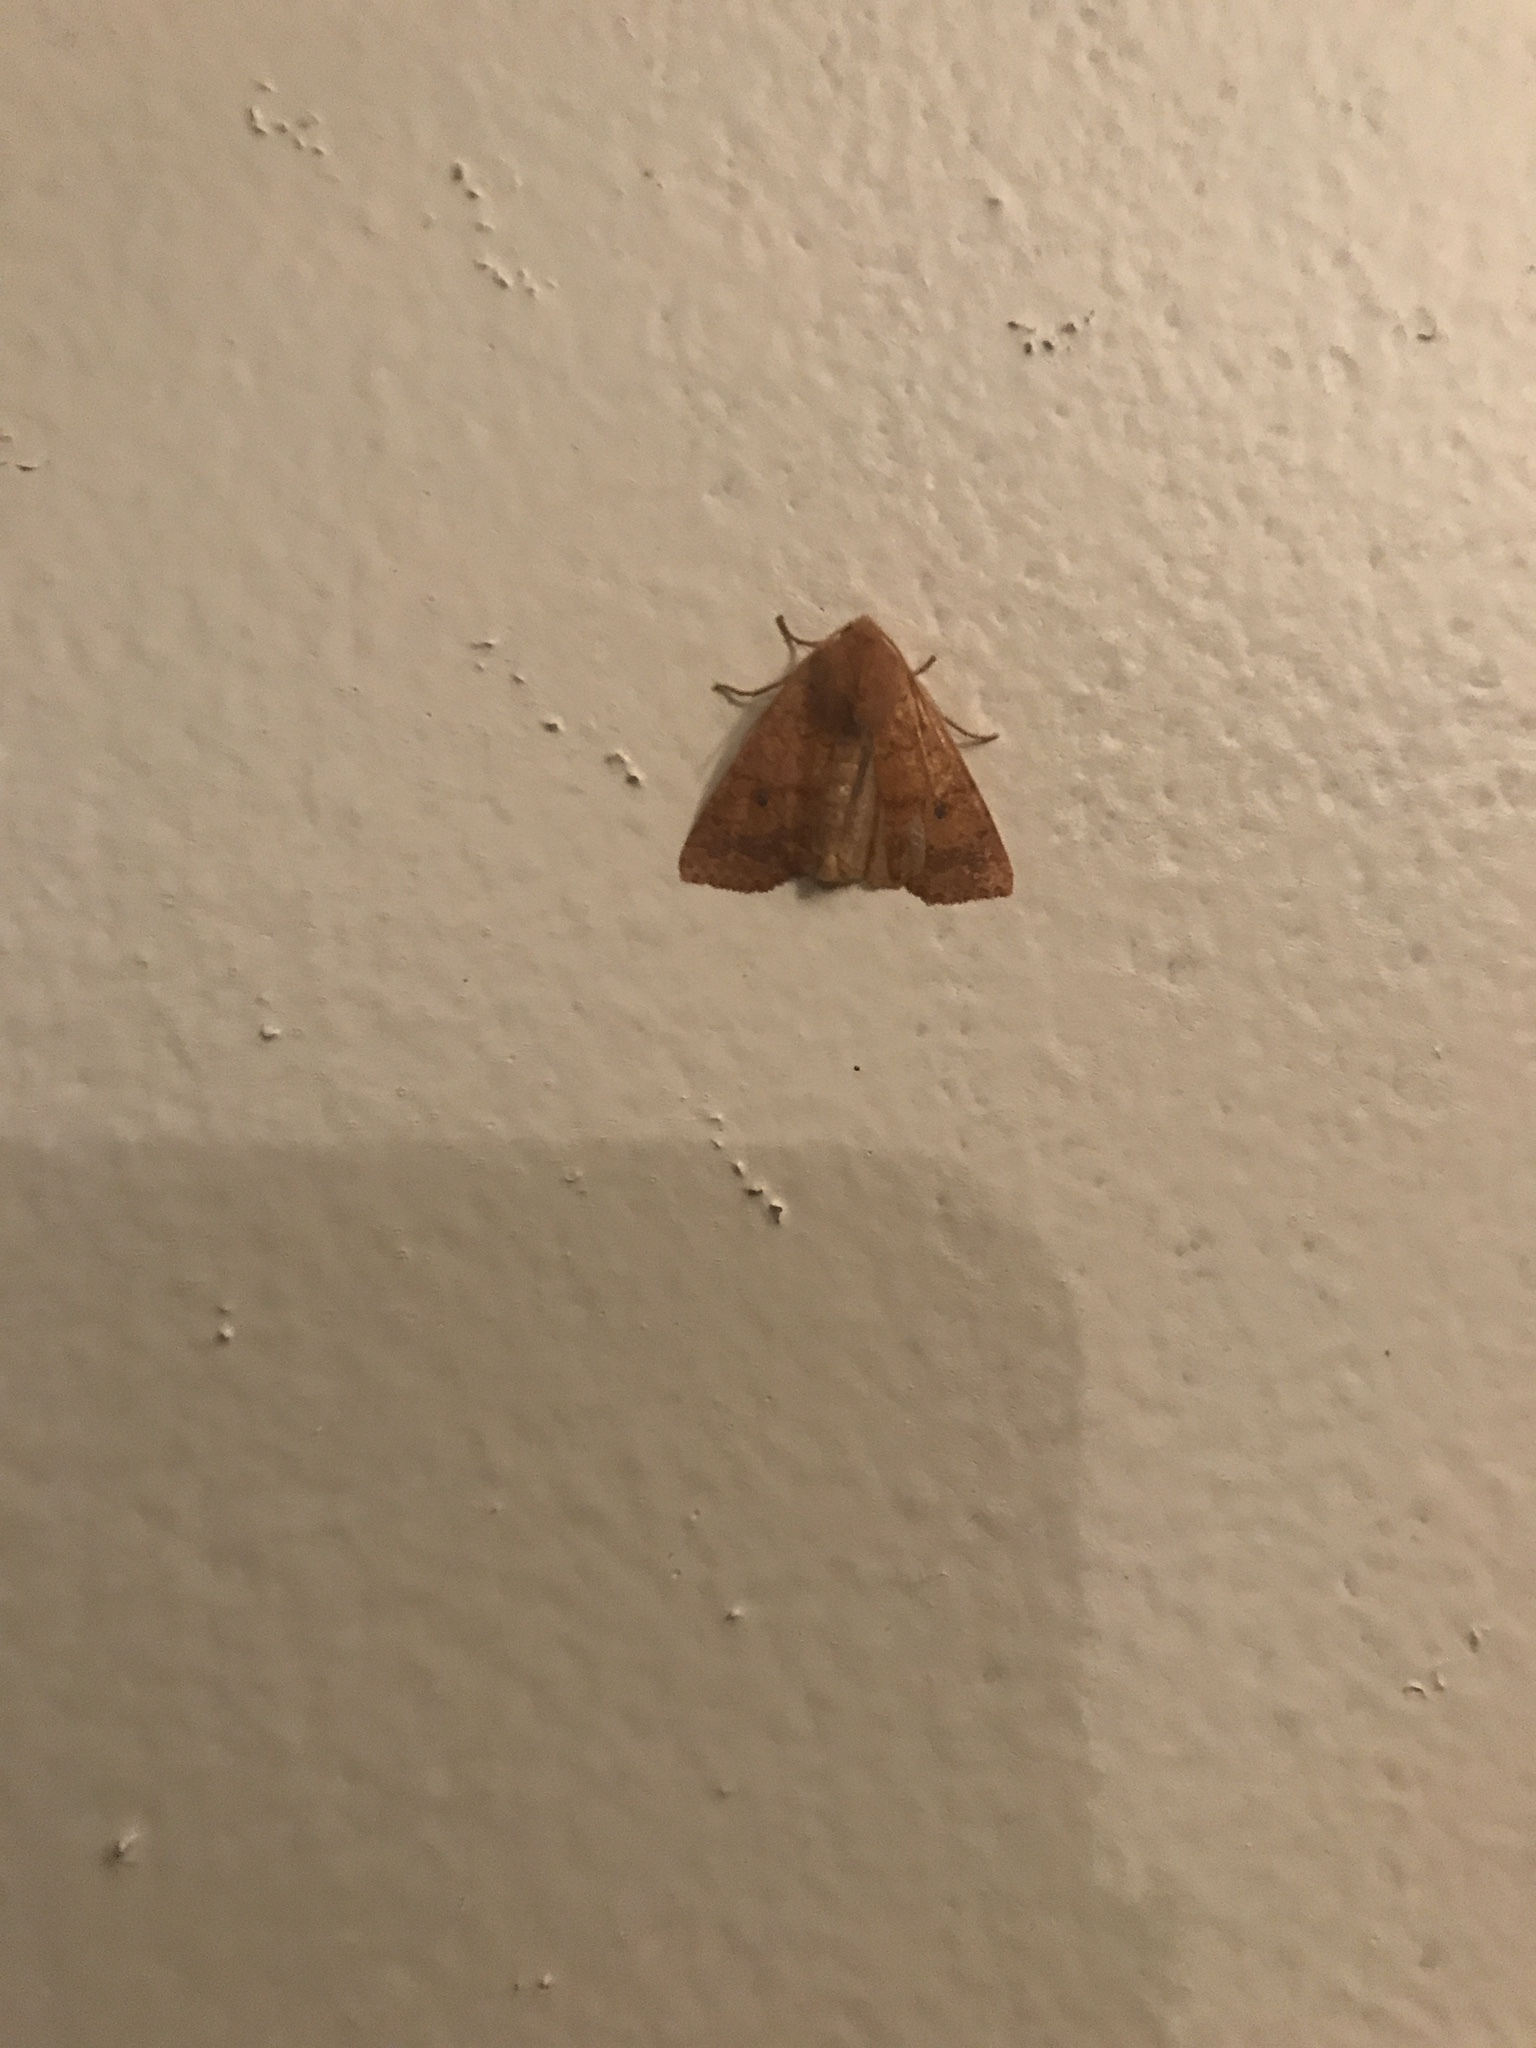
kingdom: Animalia
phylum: Arthropoda
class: Insecta
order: Lepidoptera
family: Noctuidae
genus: Agrochola
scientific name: Agrochola bicolorago
